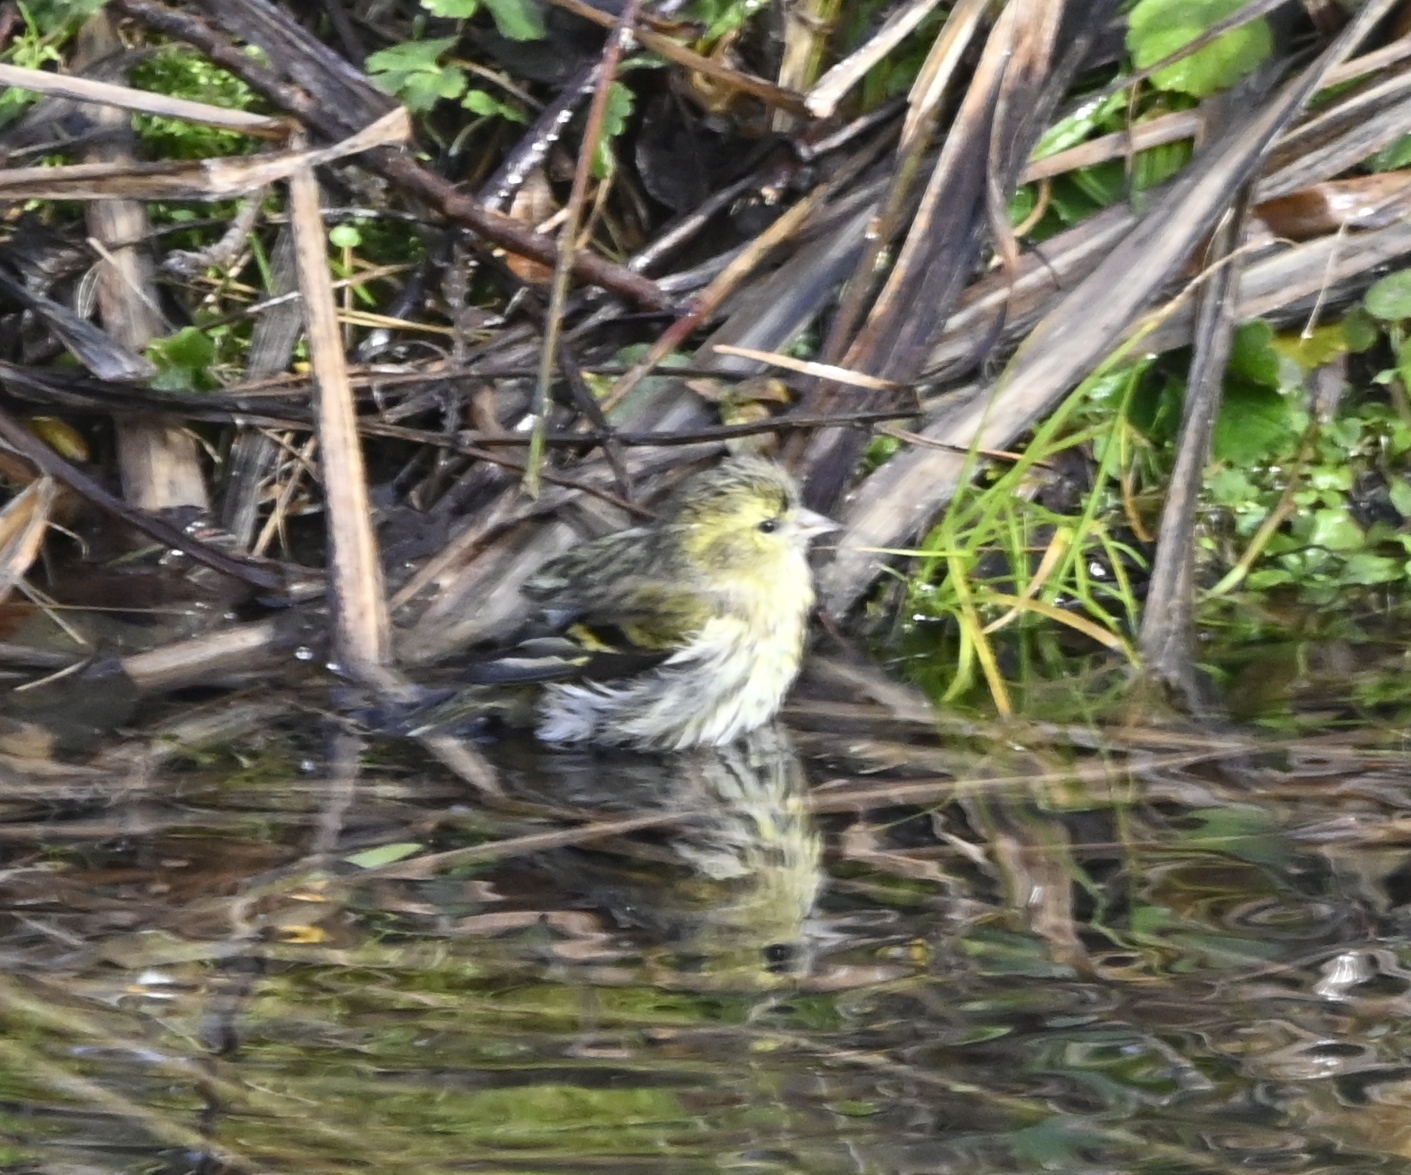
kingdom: Animalia
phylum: Chordata
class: Aves
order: Passeriformes
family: Fringillidae
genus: Spinus
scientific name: Spinus spinus
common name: Eurasian siskin
